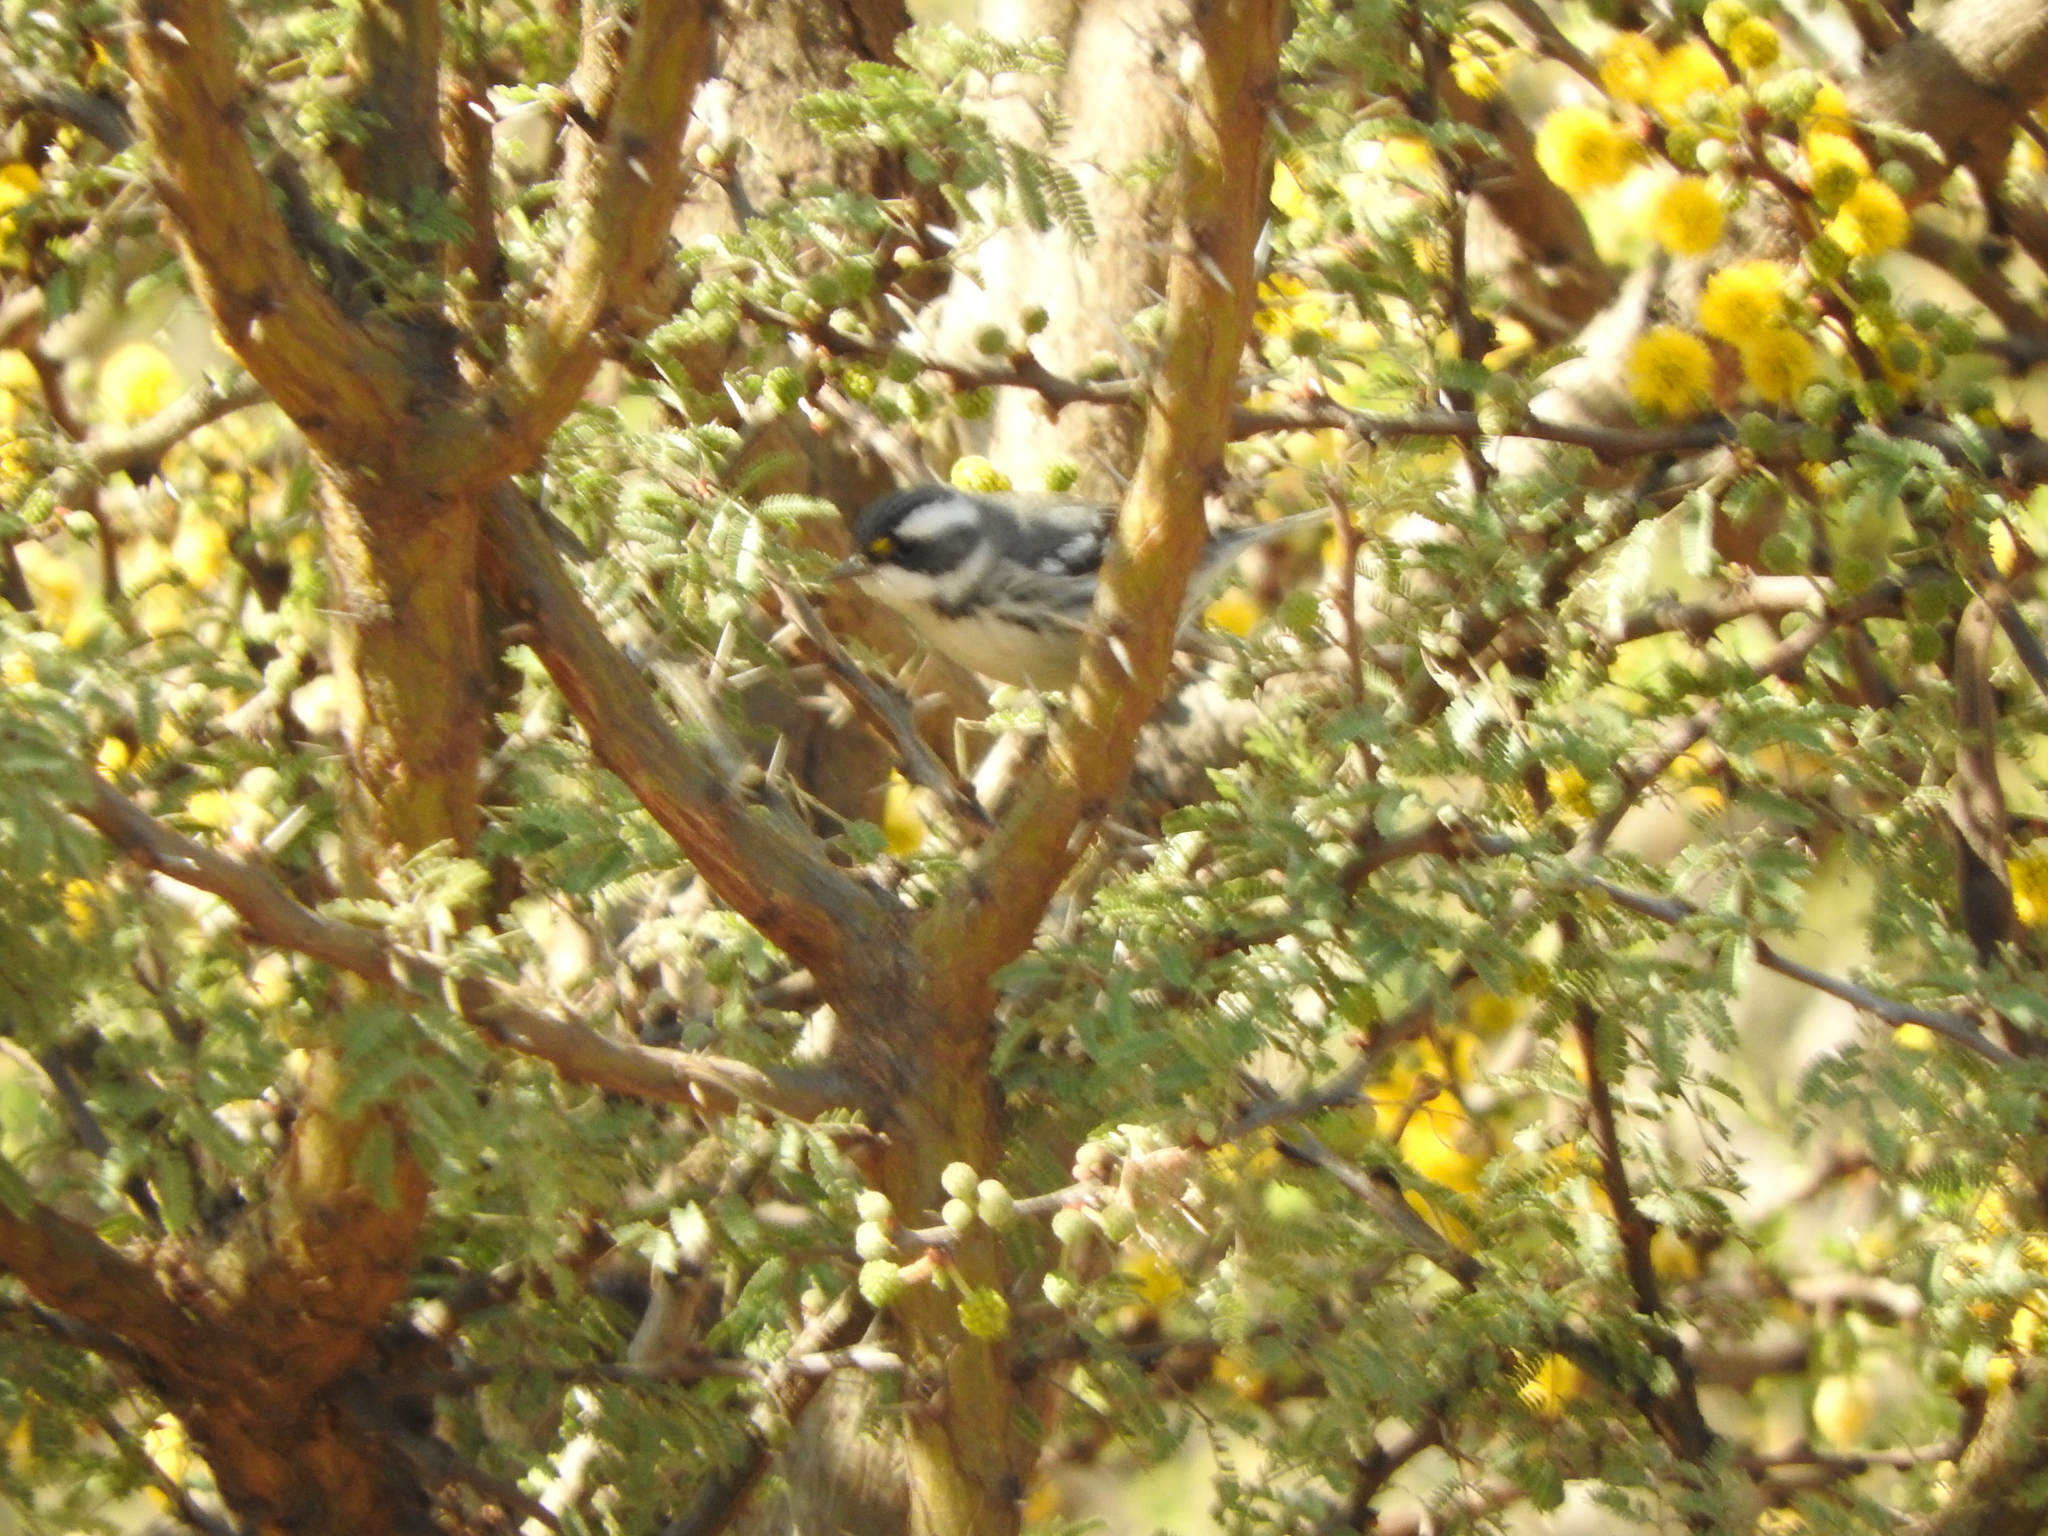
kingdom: Animalia
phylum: Chordata
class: Aves
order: Passeriformes
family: Parulidae
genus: Setophaga
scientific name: Setophaga nigrescens
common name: Black-throated gray warbler
